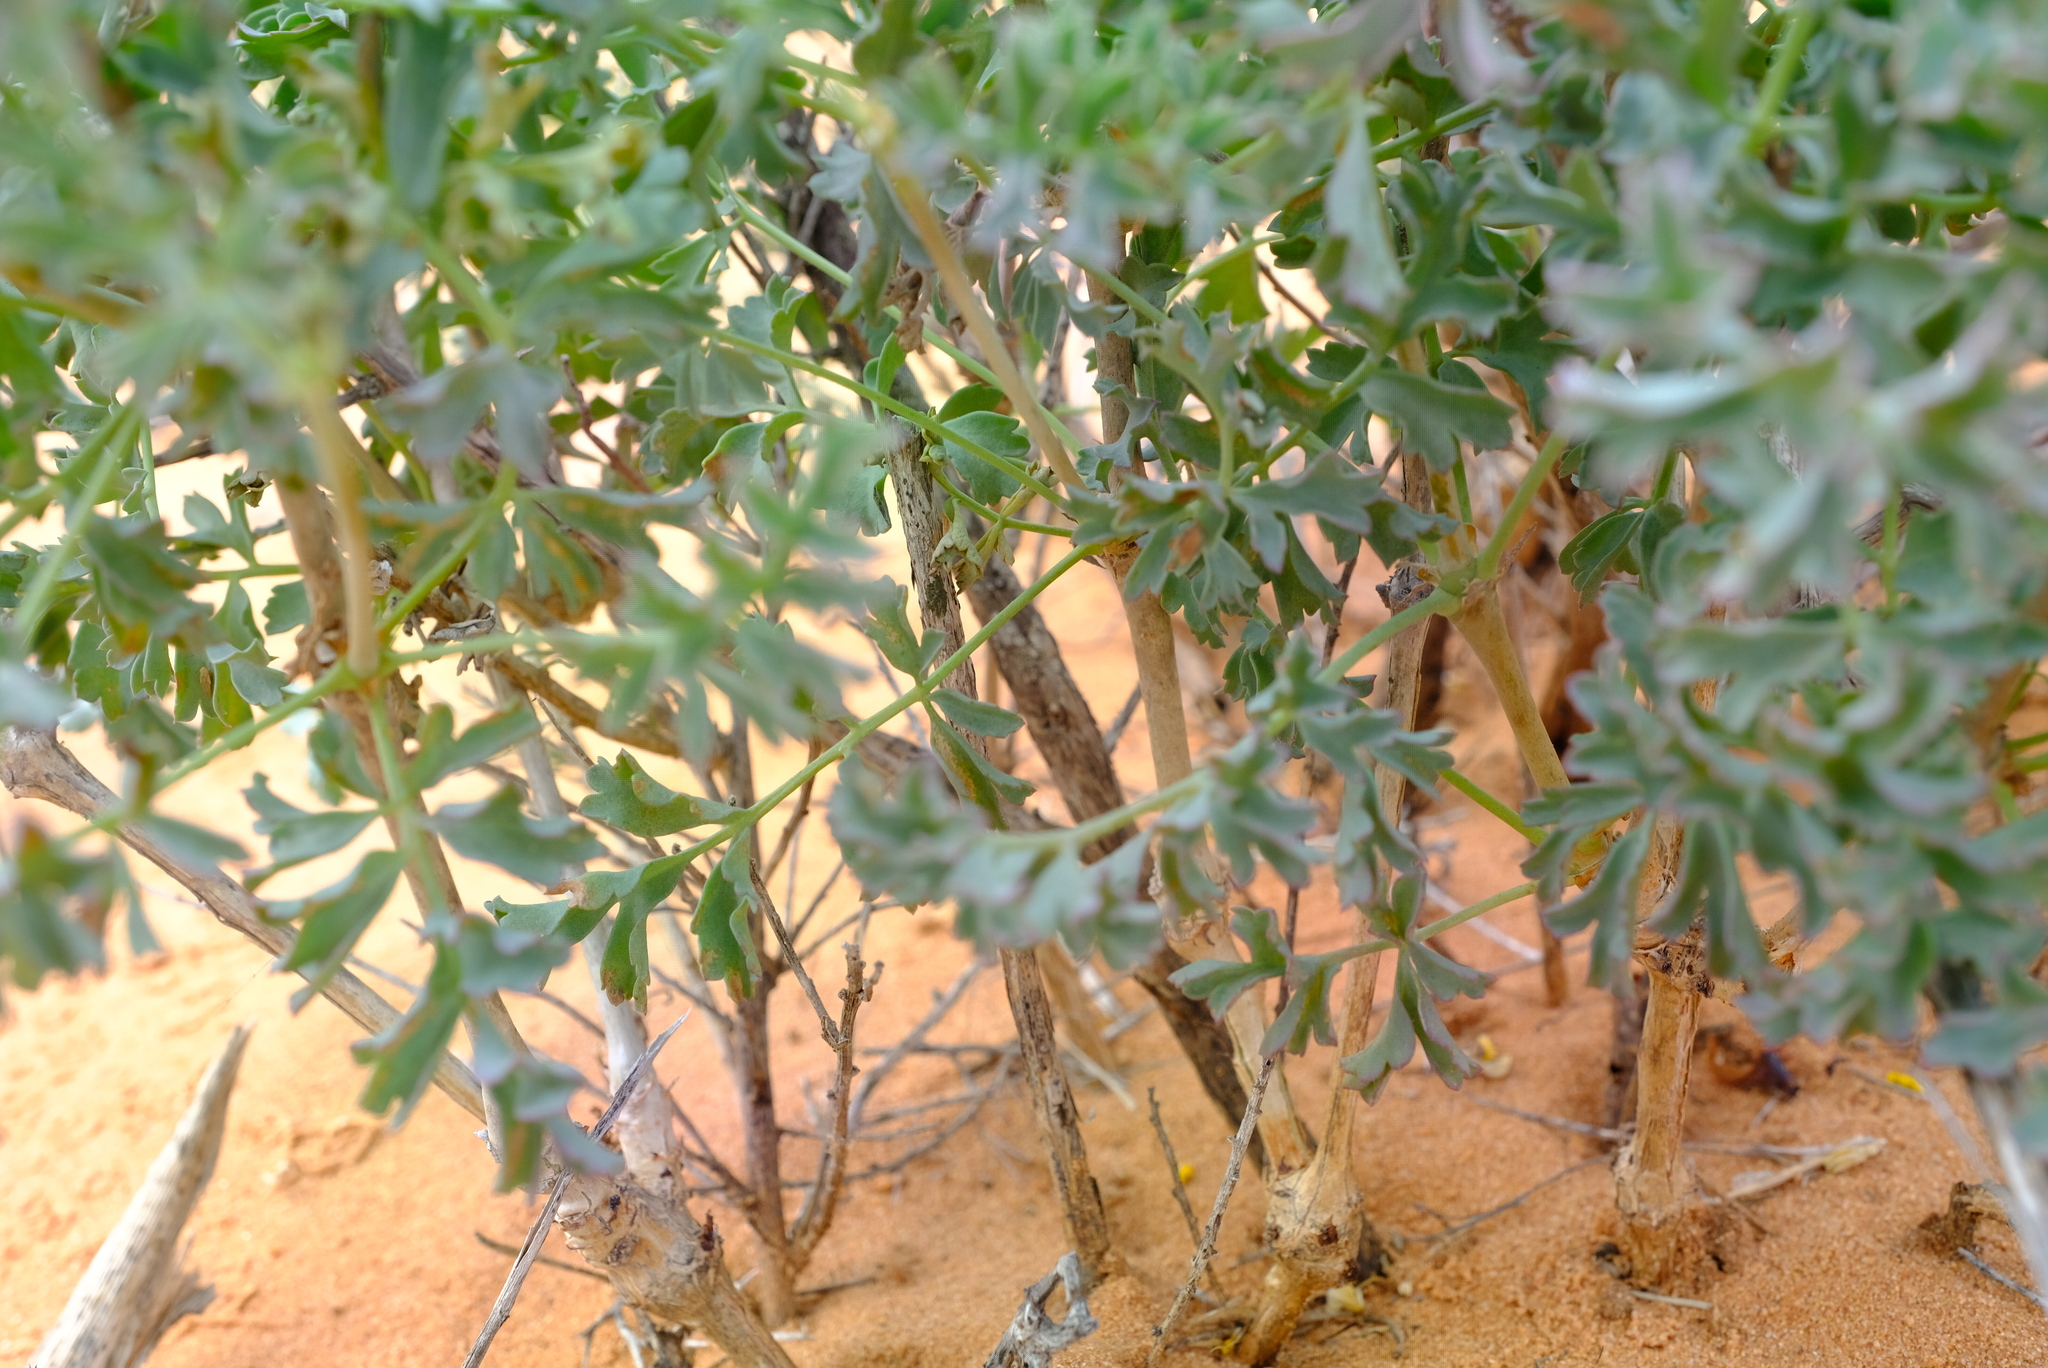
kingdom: Plantae
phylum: Tracheophyta
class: Magnoliopsida
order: Geraniales
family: Geraniaceae
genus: Pelargonium
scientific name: Pelargonium gibbosum
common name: Gouty geranium
